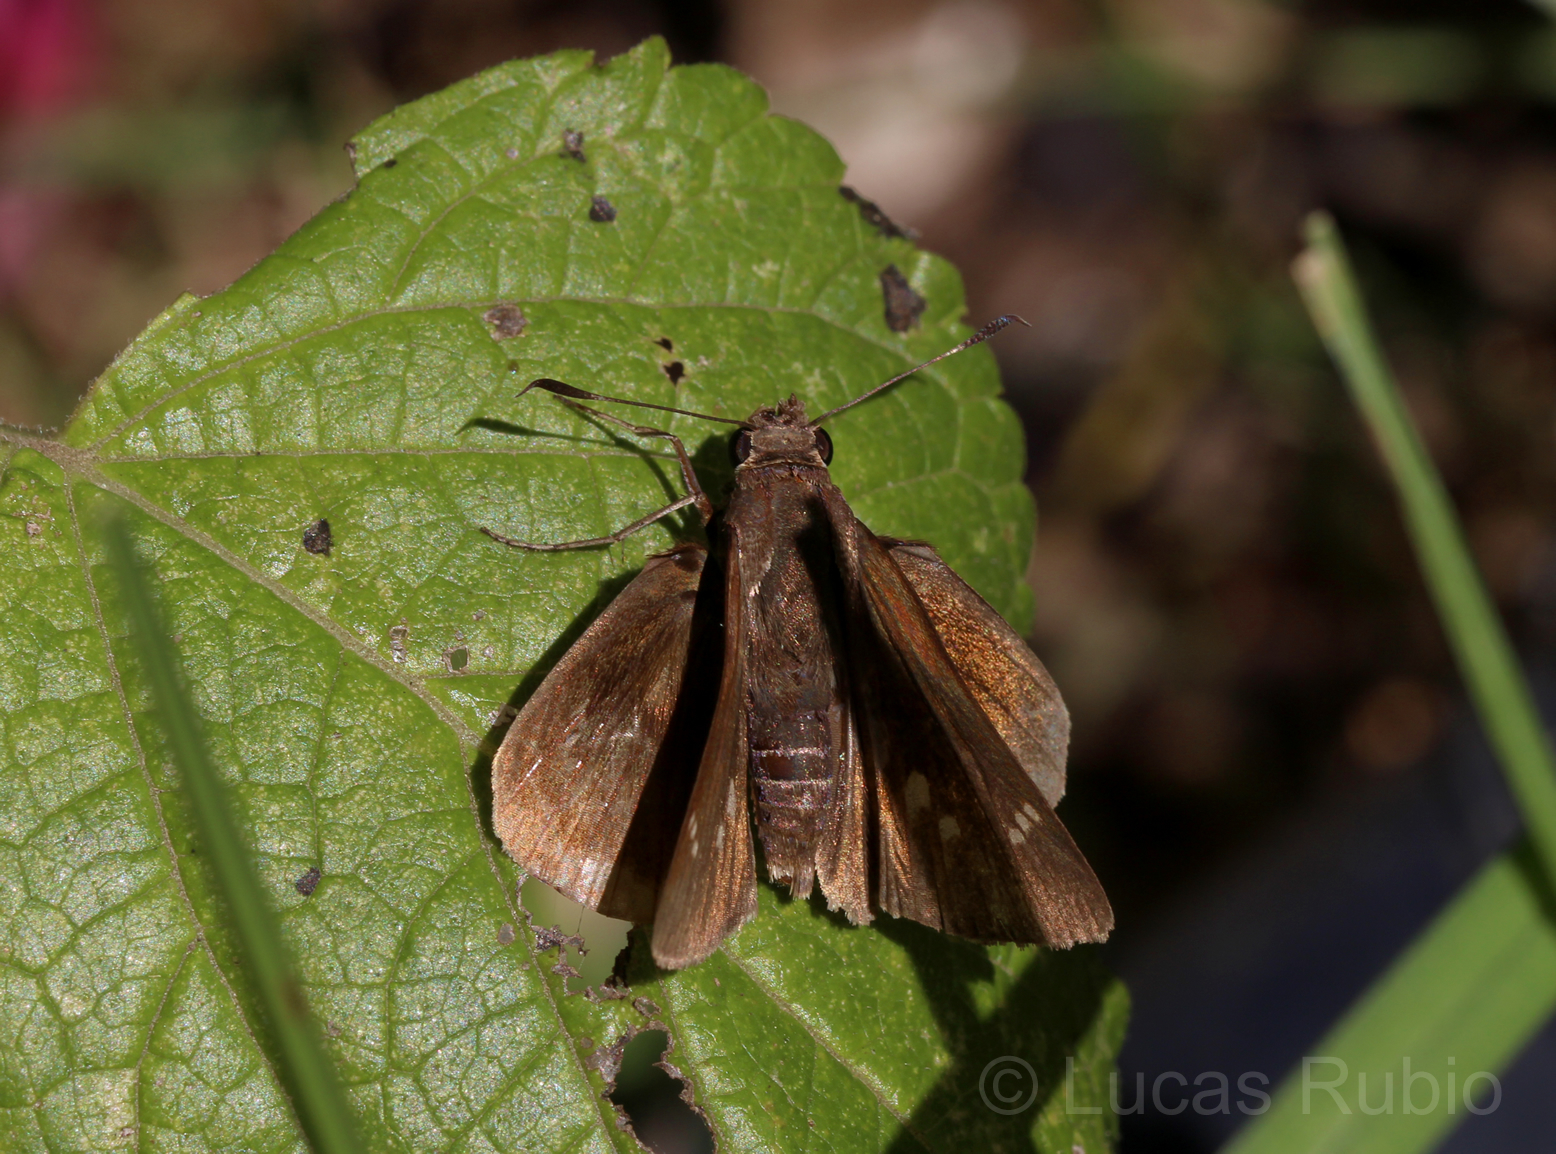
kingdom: Animalia
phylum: Arthropoda
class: Insecta
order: Lepidoptera
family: Hesperiidae
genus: Quinta
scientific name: Quinta cannae
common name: Canna skipper
